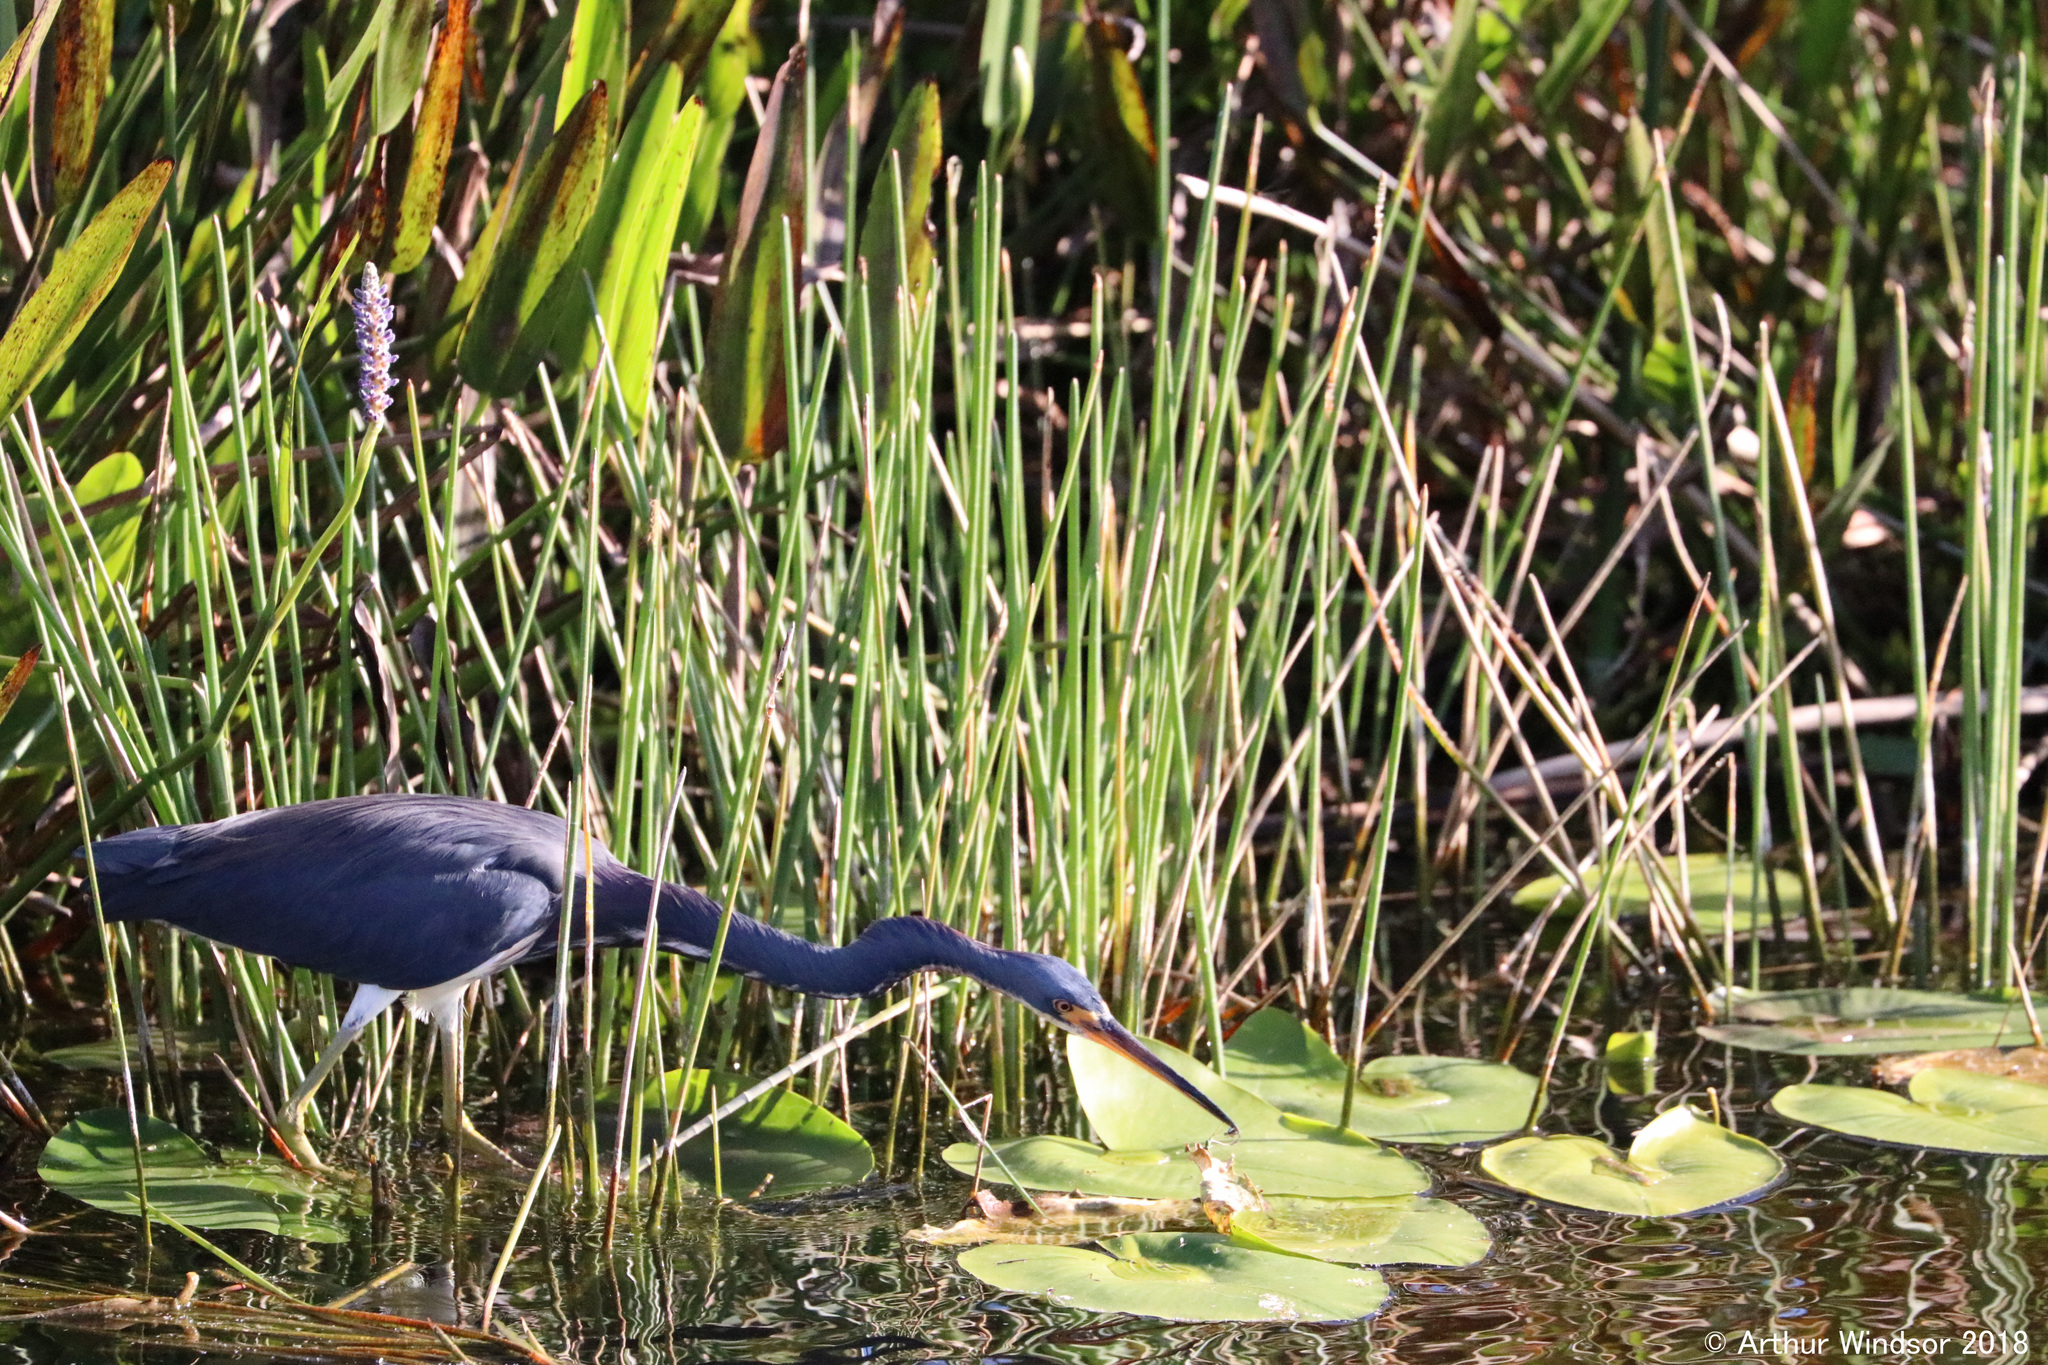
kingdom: Animalia
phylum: Chordata
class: Aves
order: Pelecaniformes
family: Ardeidae
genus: Egretta
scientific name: Egretta tricolor
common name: Tricolored heron
